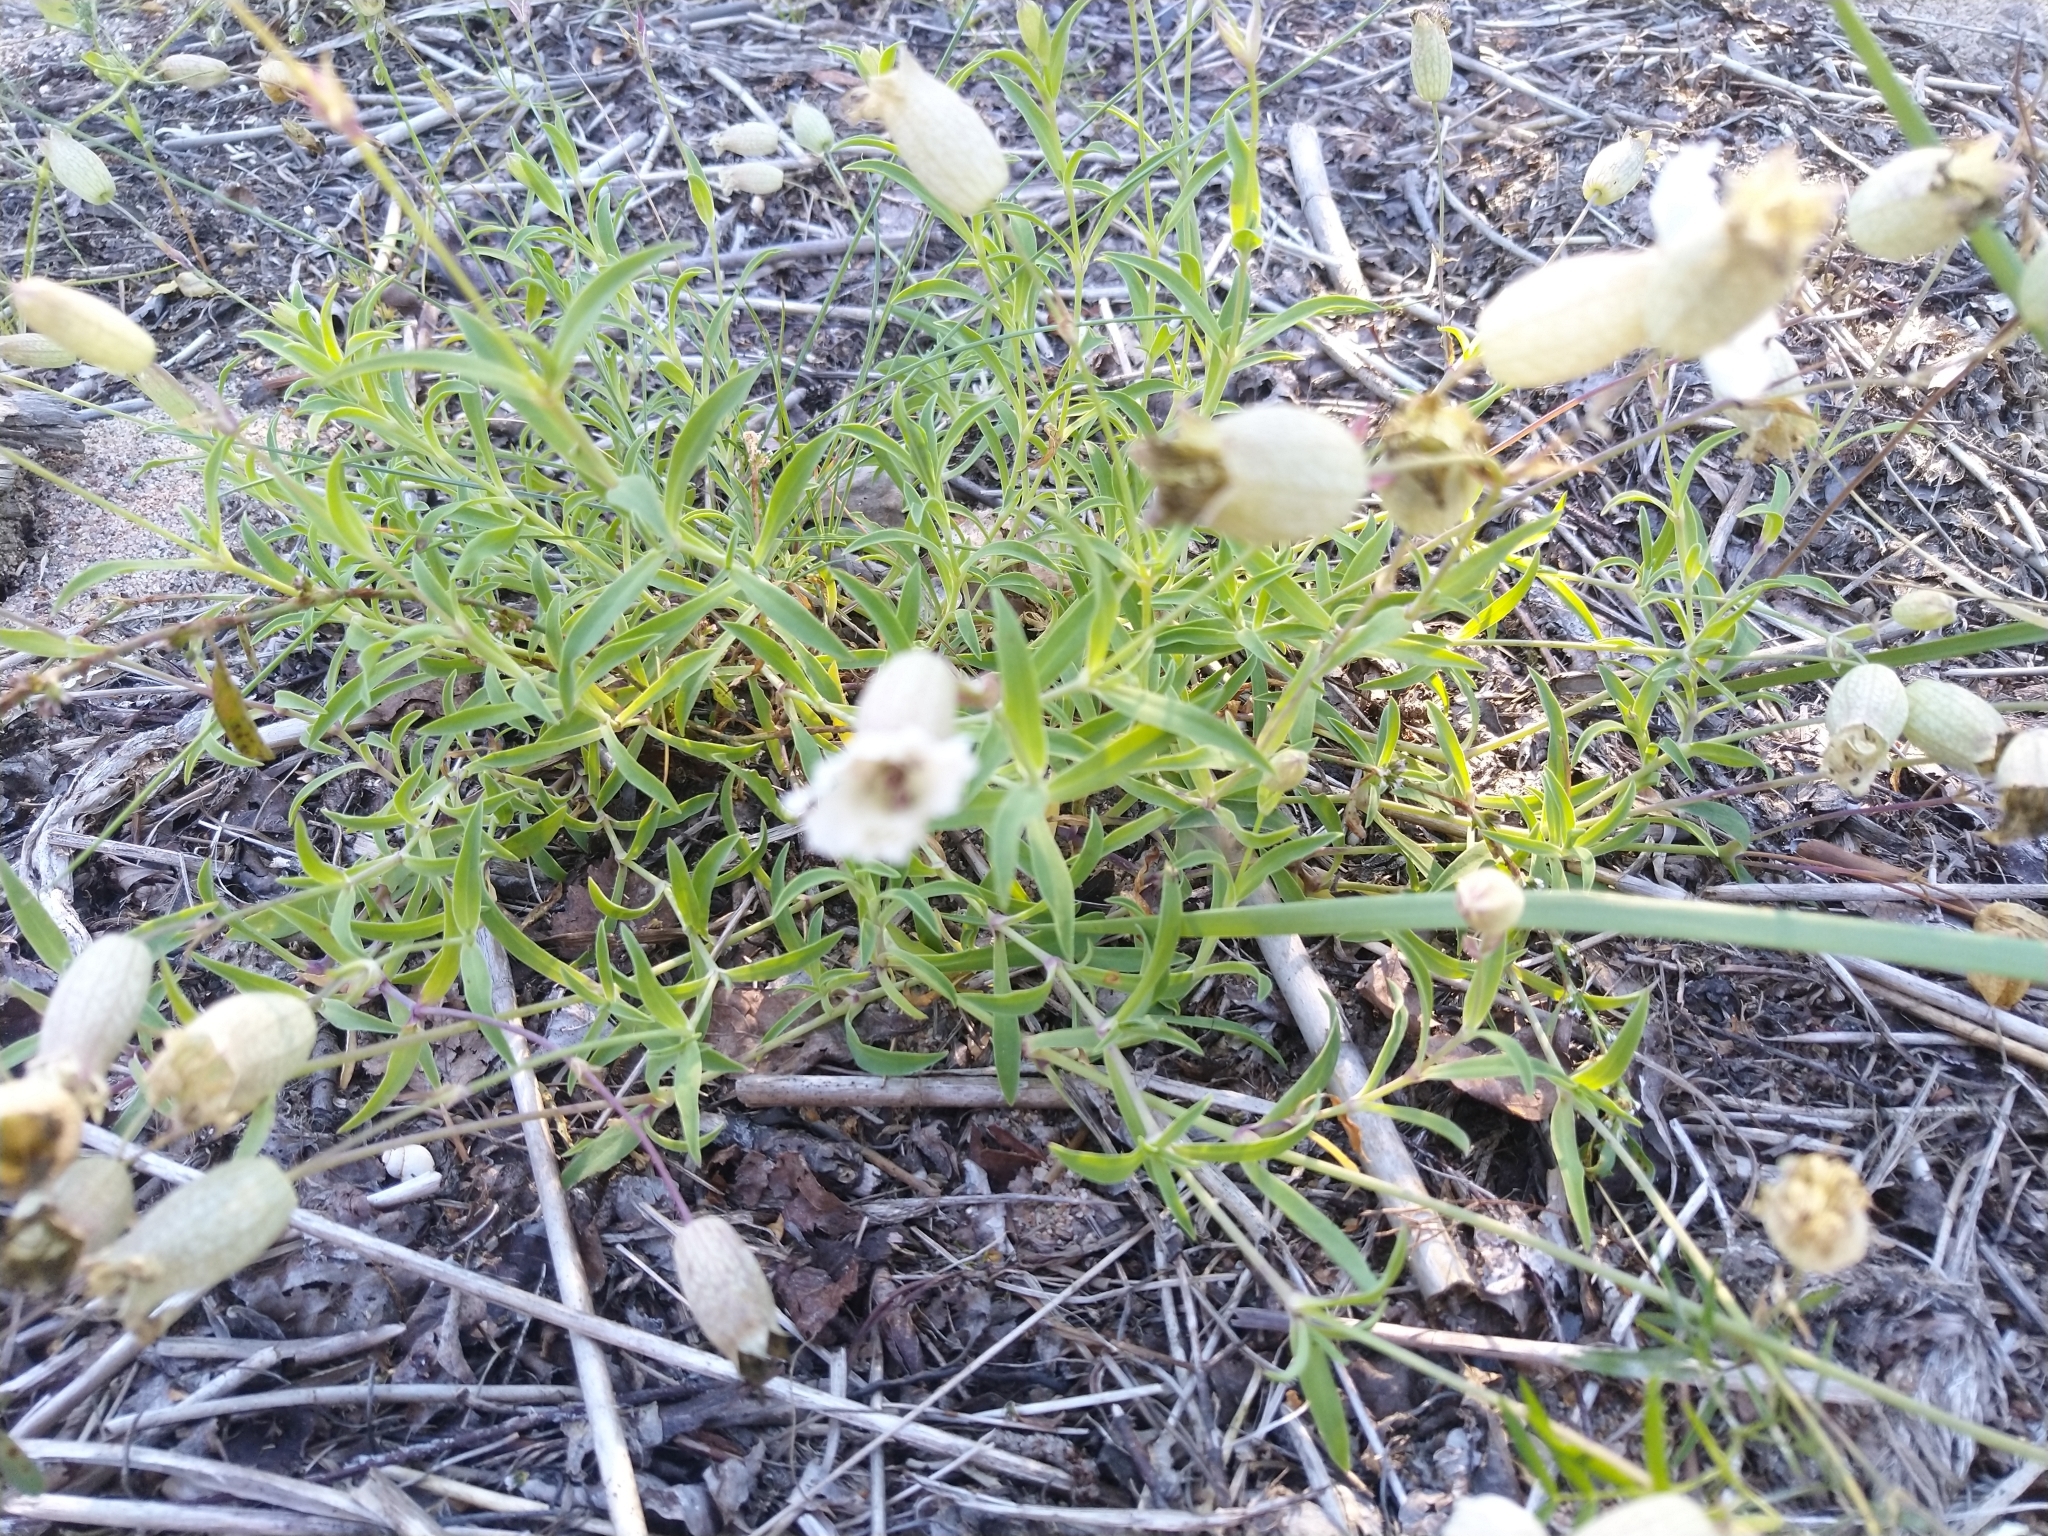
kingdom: Plantae
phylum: Tracheophyta
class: Magnoliopsida
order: Caryophyllales
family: Caryophyllaceae
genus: Silene
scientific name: Silene uniflora
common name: Sea campion
